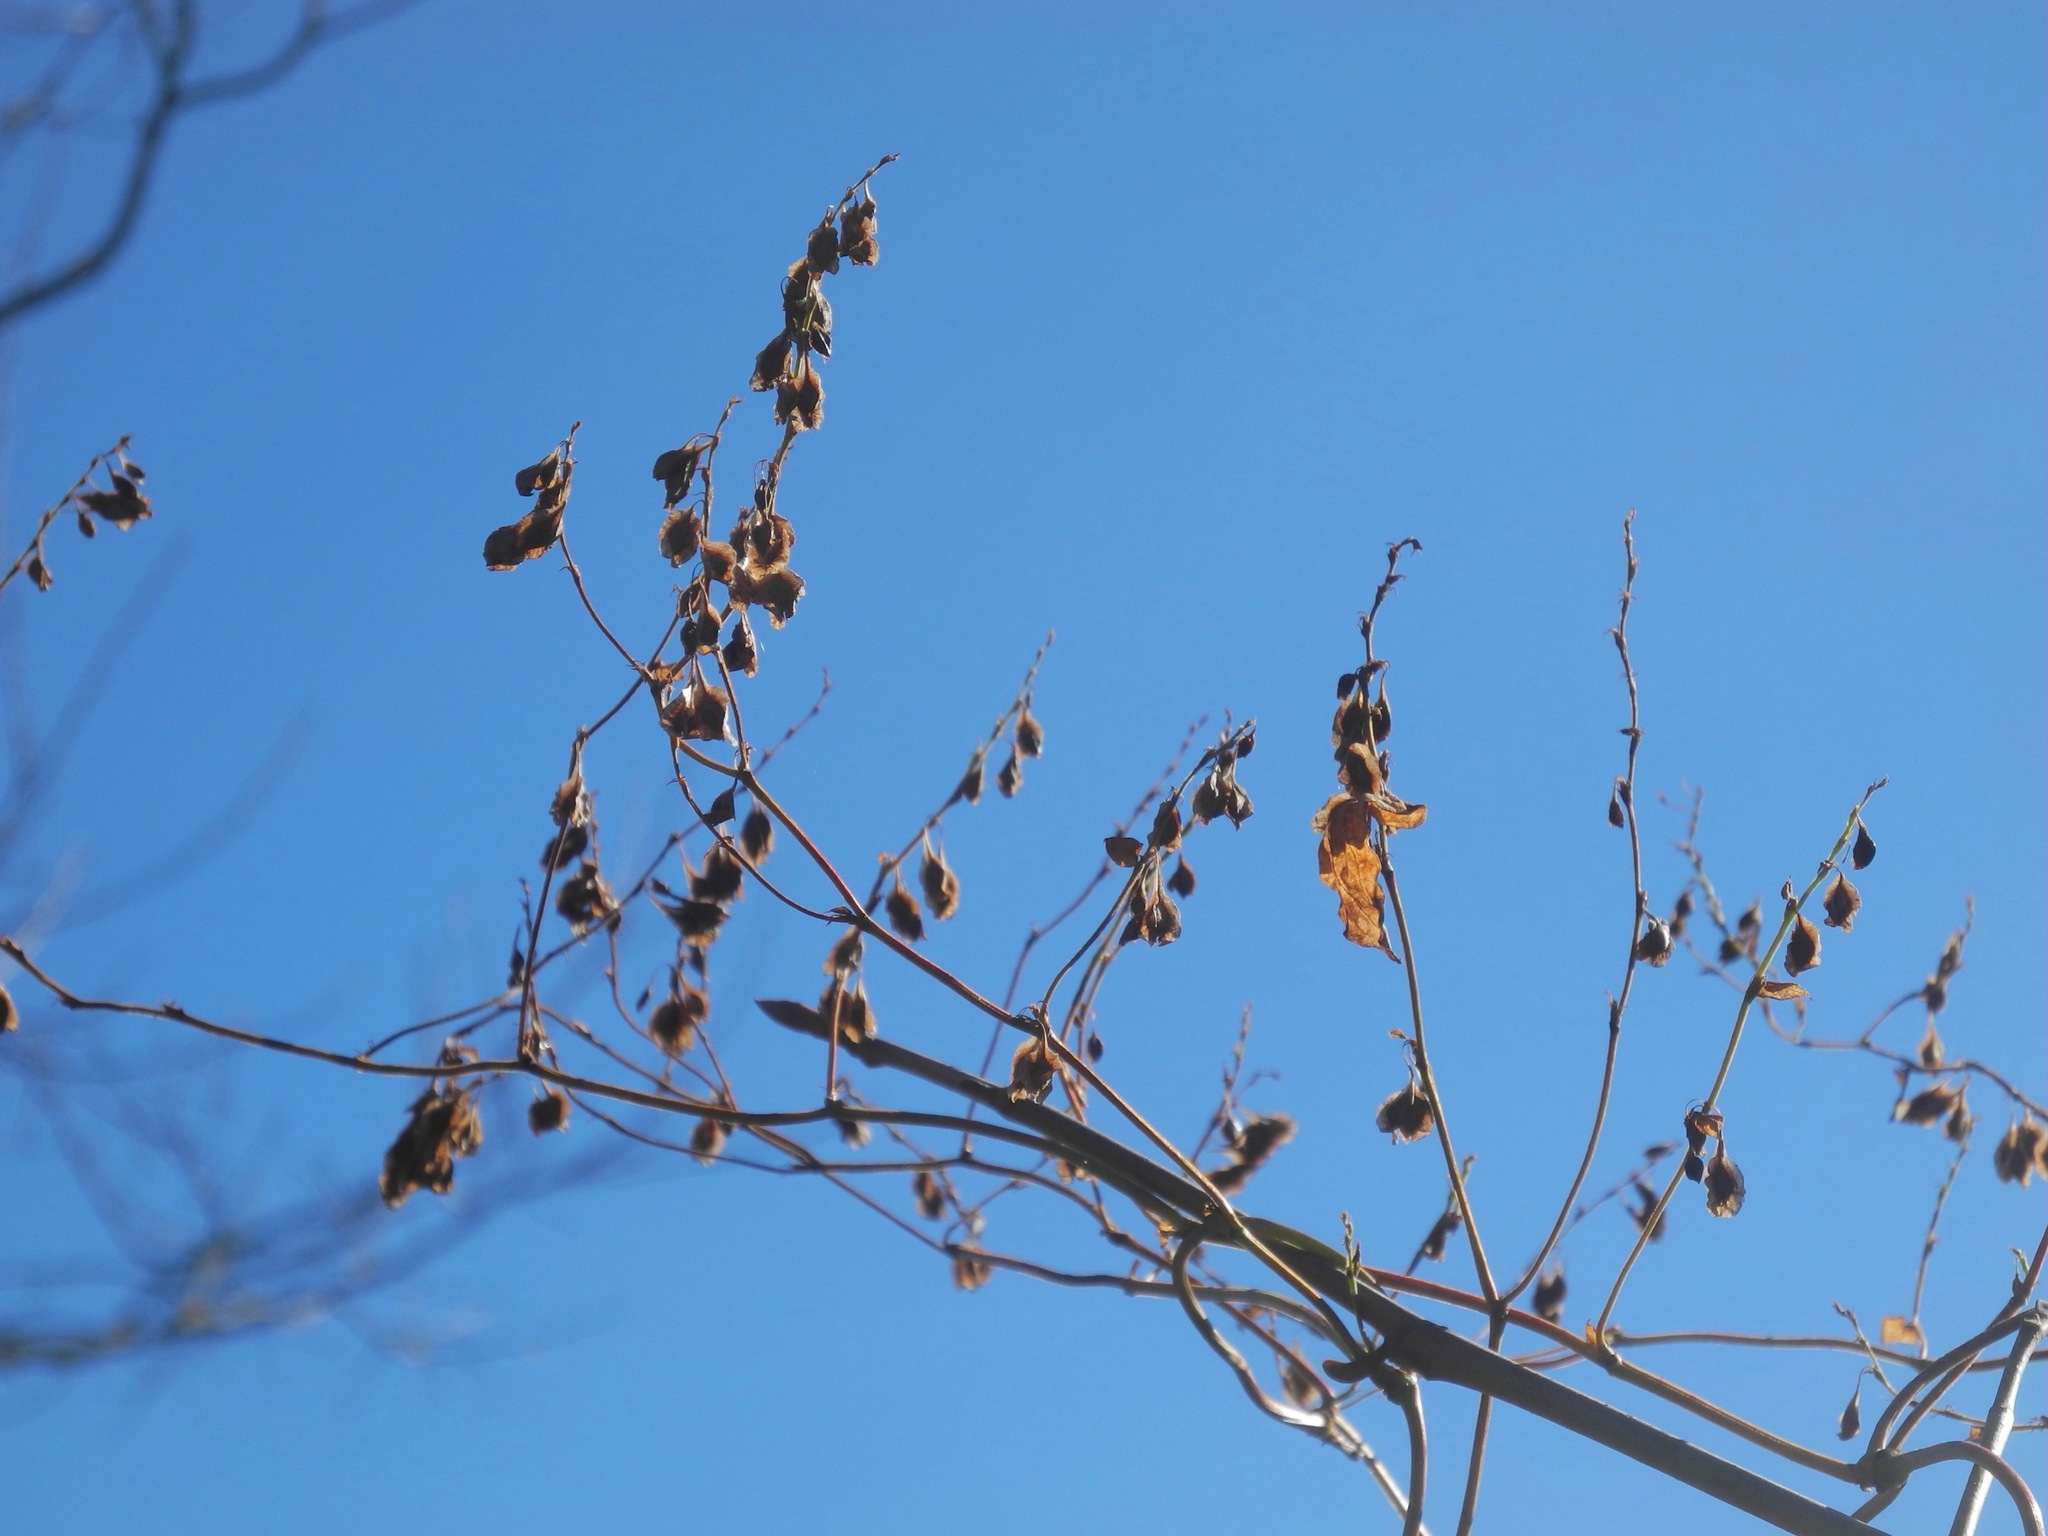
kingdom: Plantae
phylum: Tracheophyta
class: Magnoliopsida
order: Caryophyllales
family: Polygonaceae
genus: Fallopia
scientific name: Fallopia scandens
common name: Climbing false buckwheat
